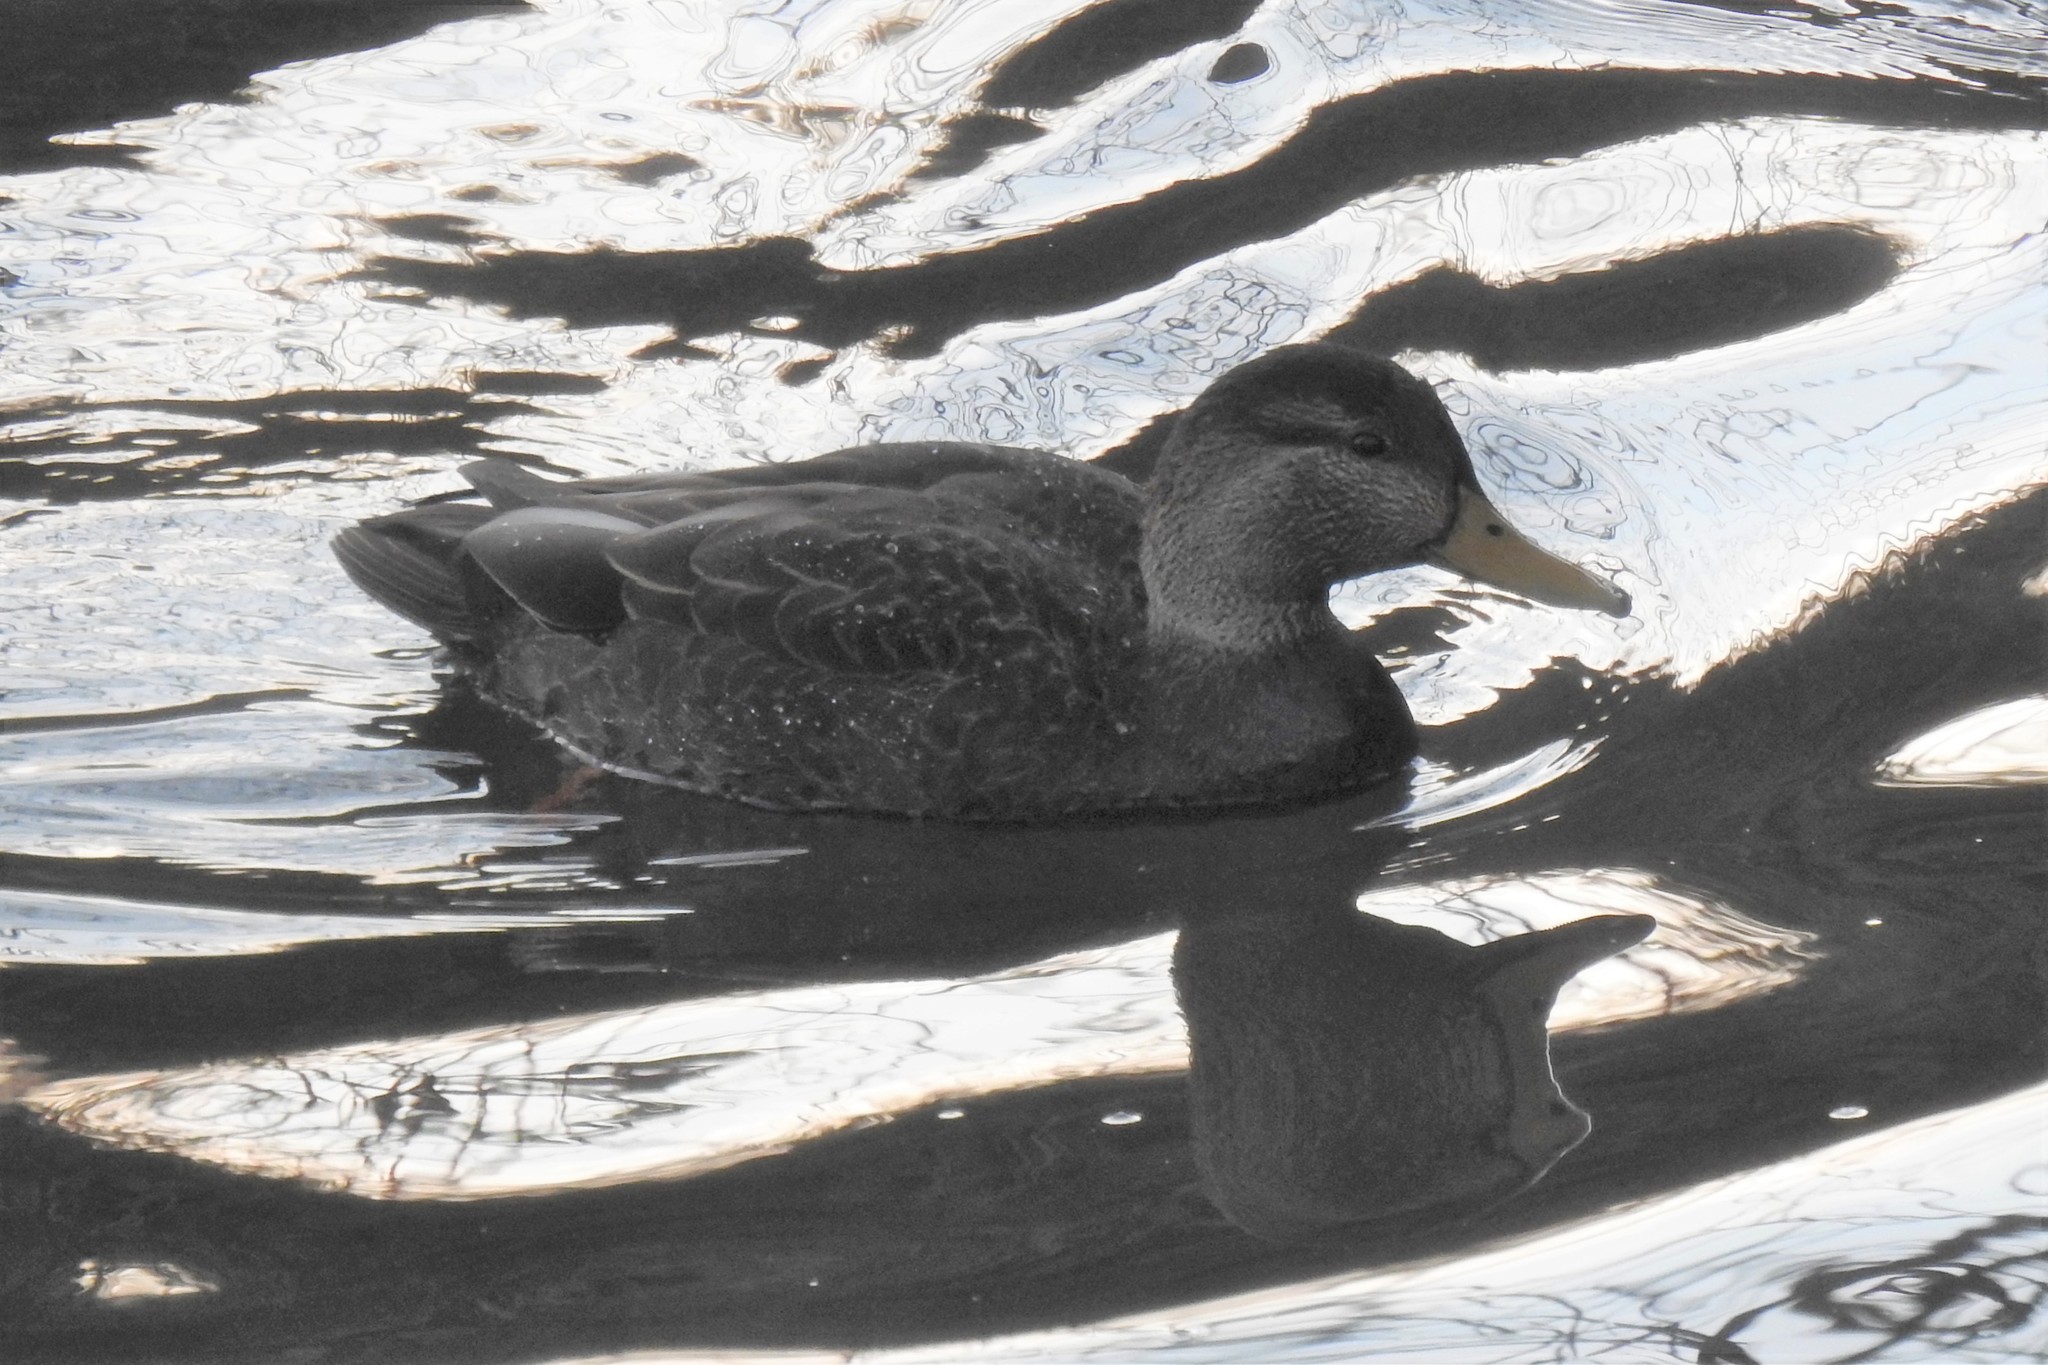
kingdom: Animalia
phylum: Chordata
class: Aves
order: Anseriformes
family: Anatidae
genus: Anas
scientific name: Anas rubripes
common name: American black duck
